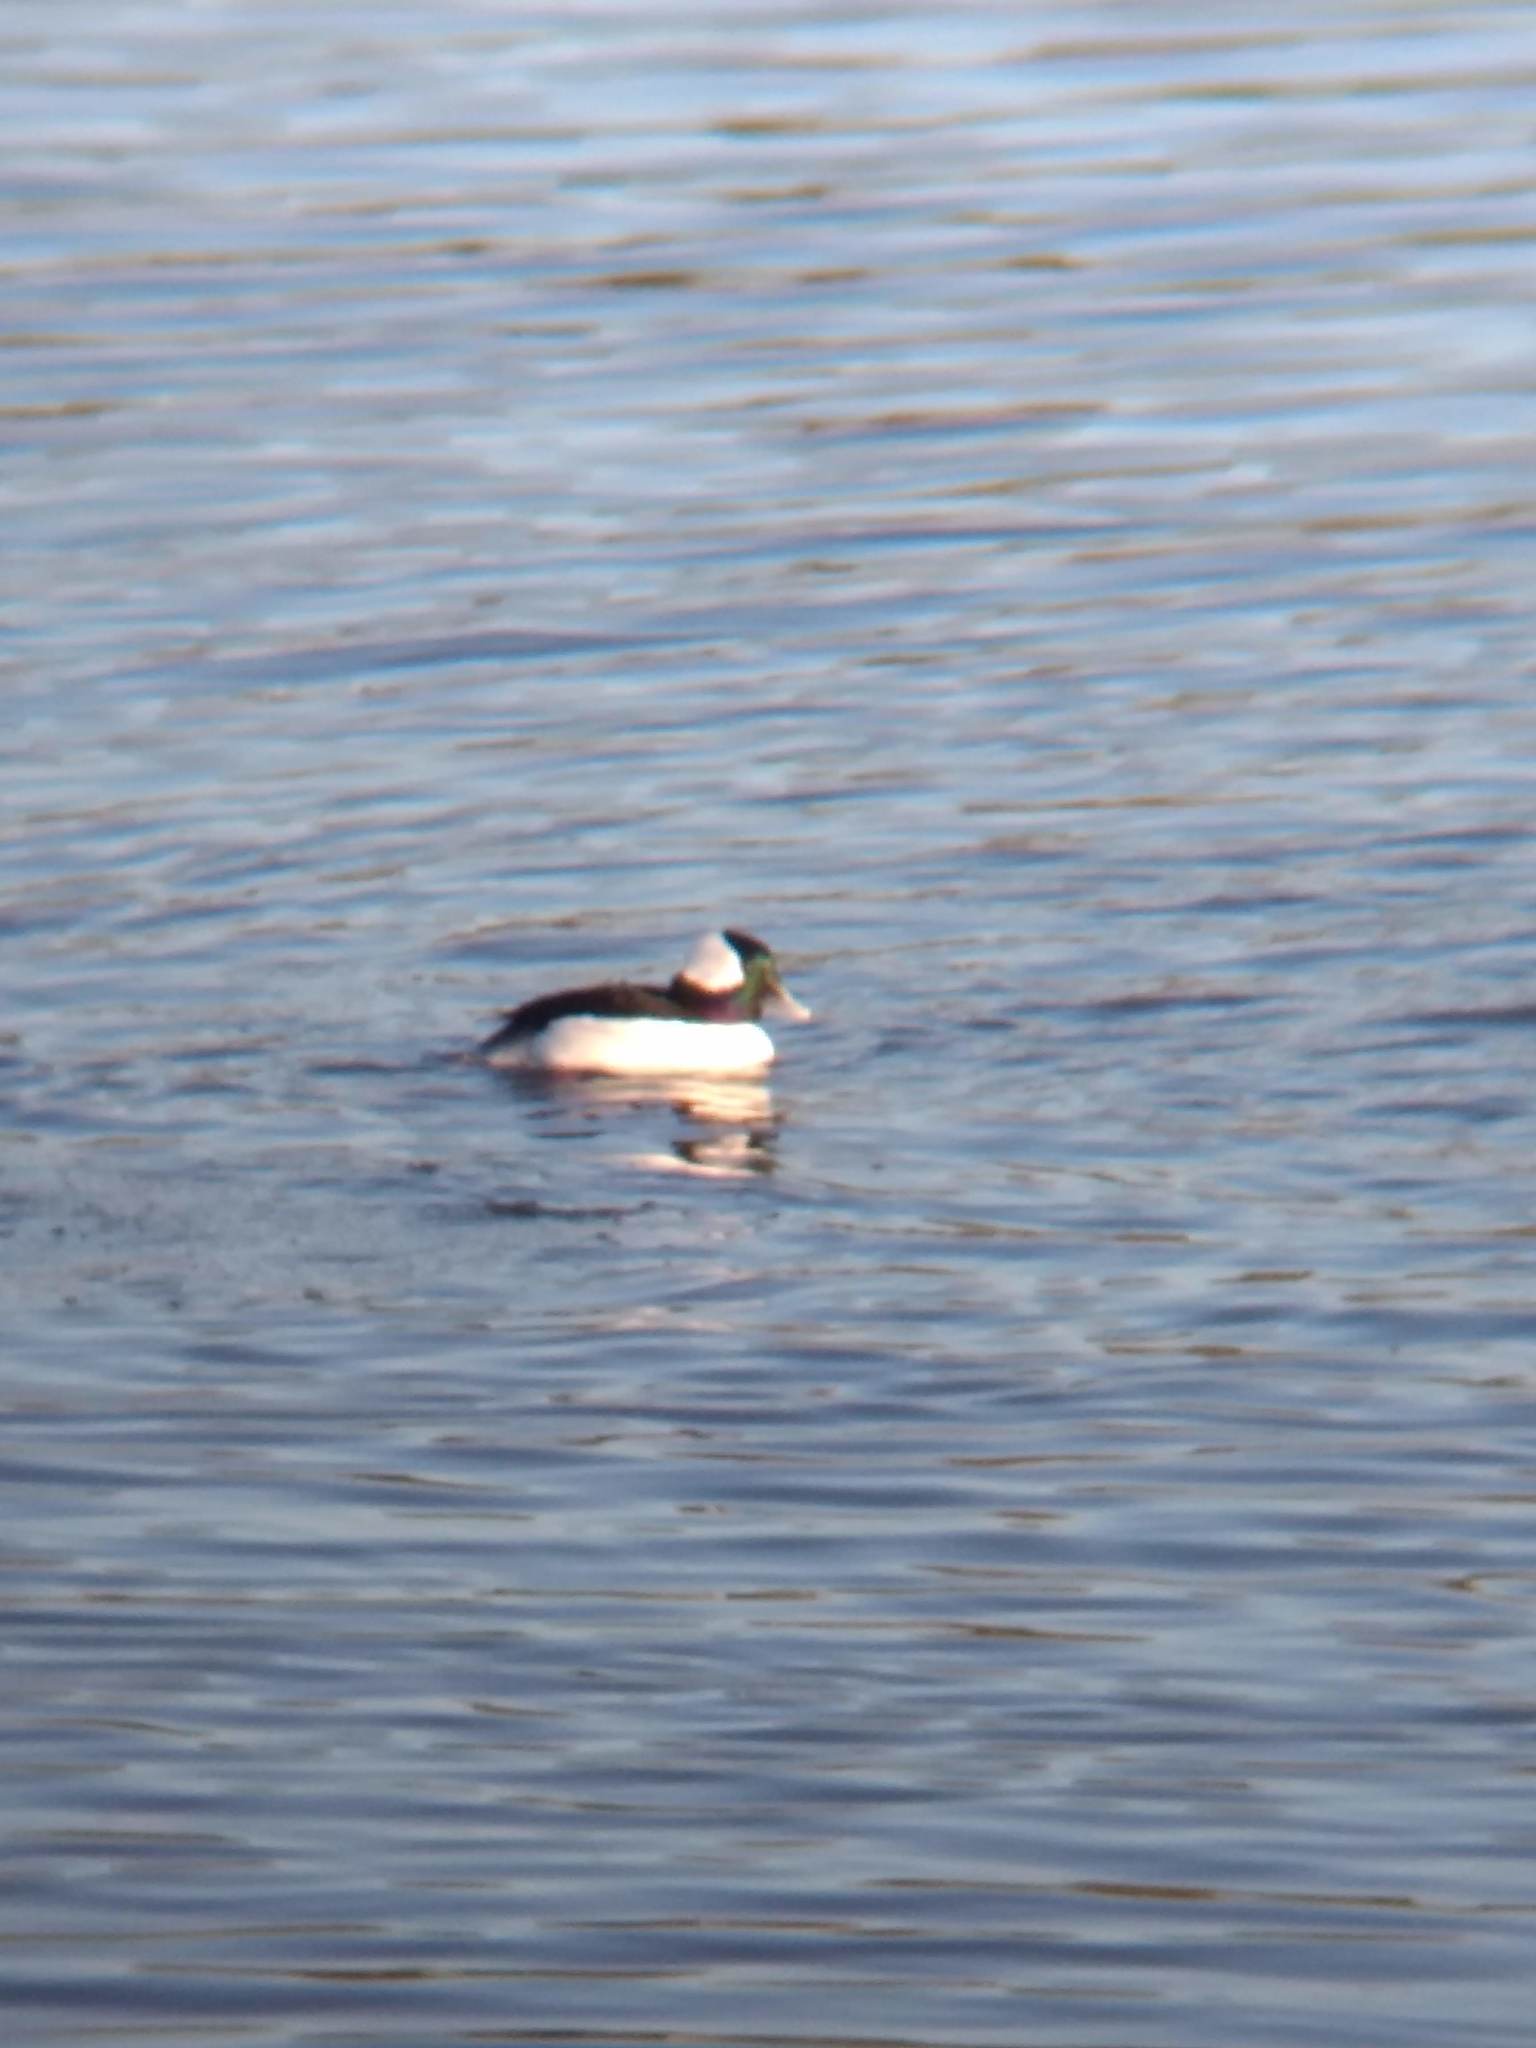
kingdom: Animalia
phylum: Chordata
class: Aves
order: Anseriformes
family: Anatidae
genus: Bucephala
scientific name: Bucephala albeola
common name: Bufflehead
